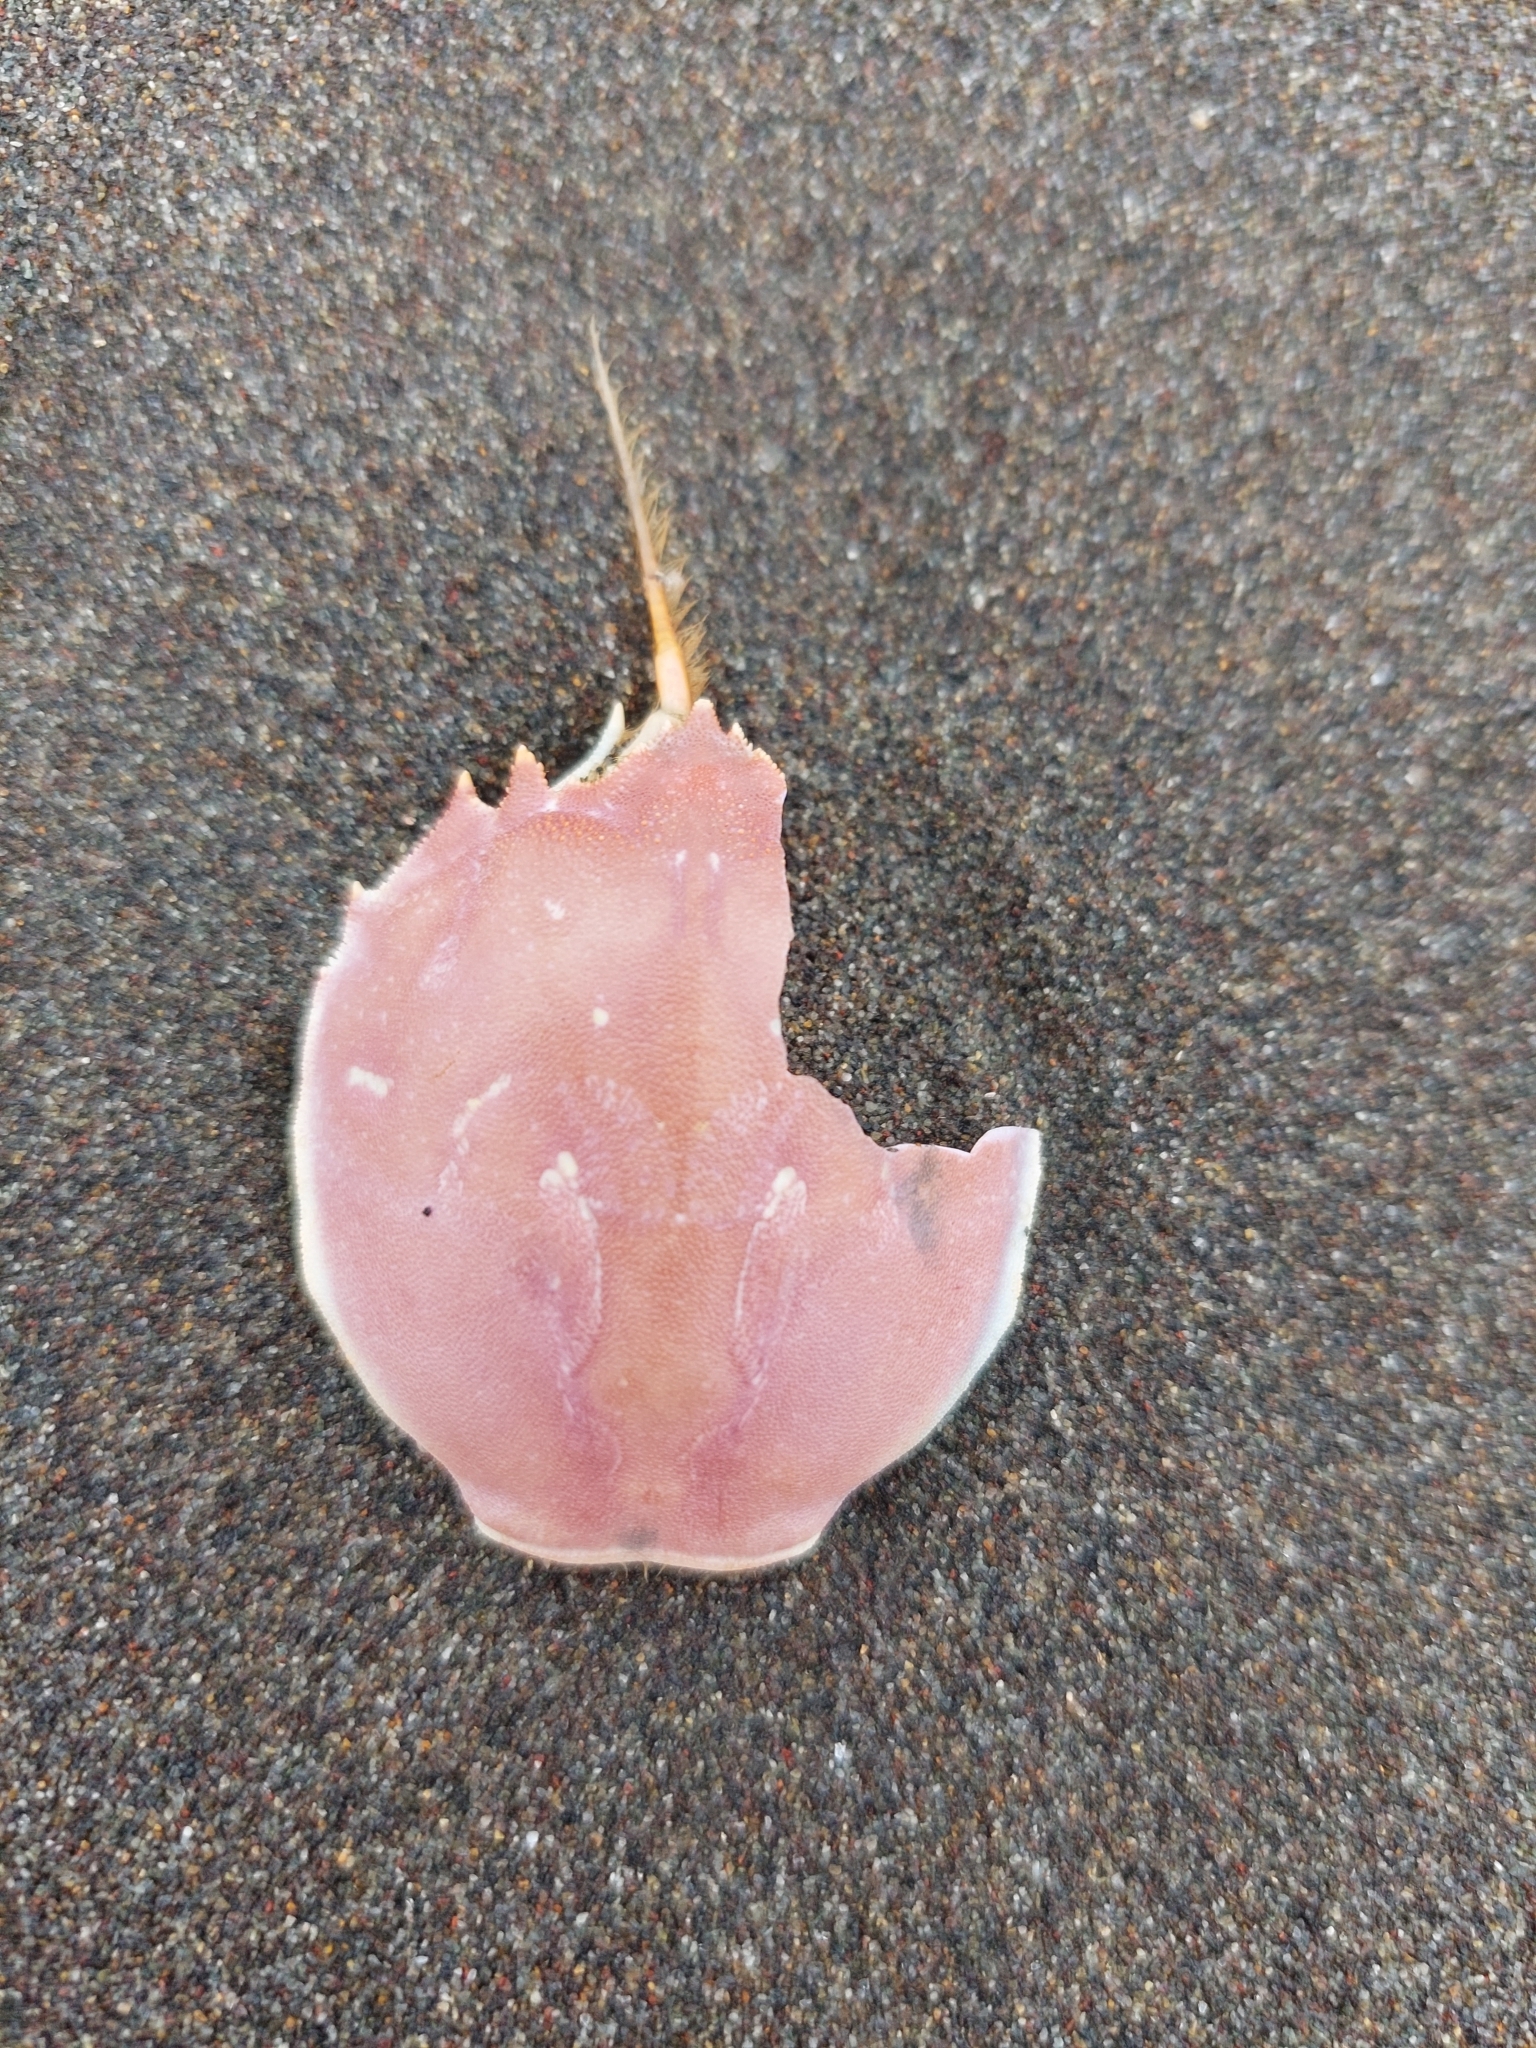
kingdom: Animalia
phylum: Arthropoda
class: Malacostraca
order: Decapoda
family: Atelecyclidae
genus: Pseudocorystes
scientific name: Pseudocorystes sicarius
